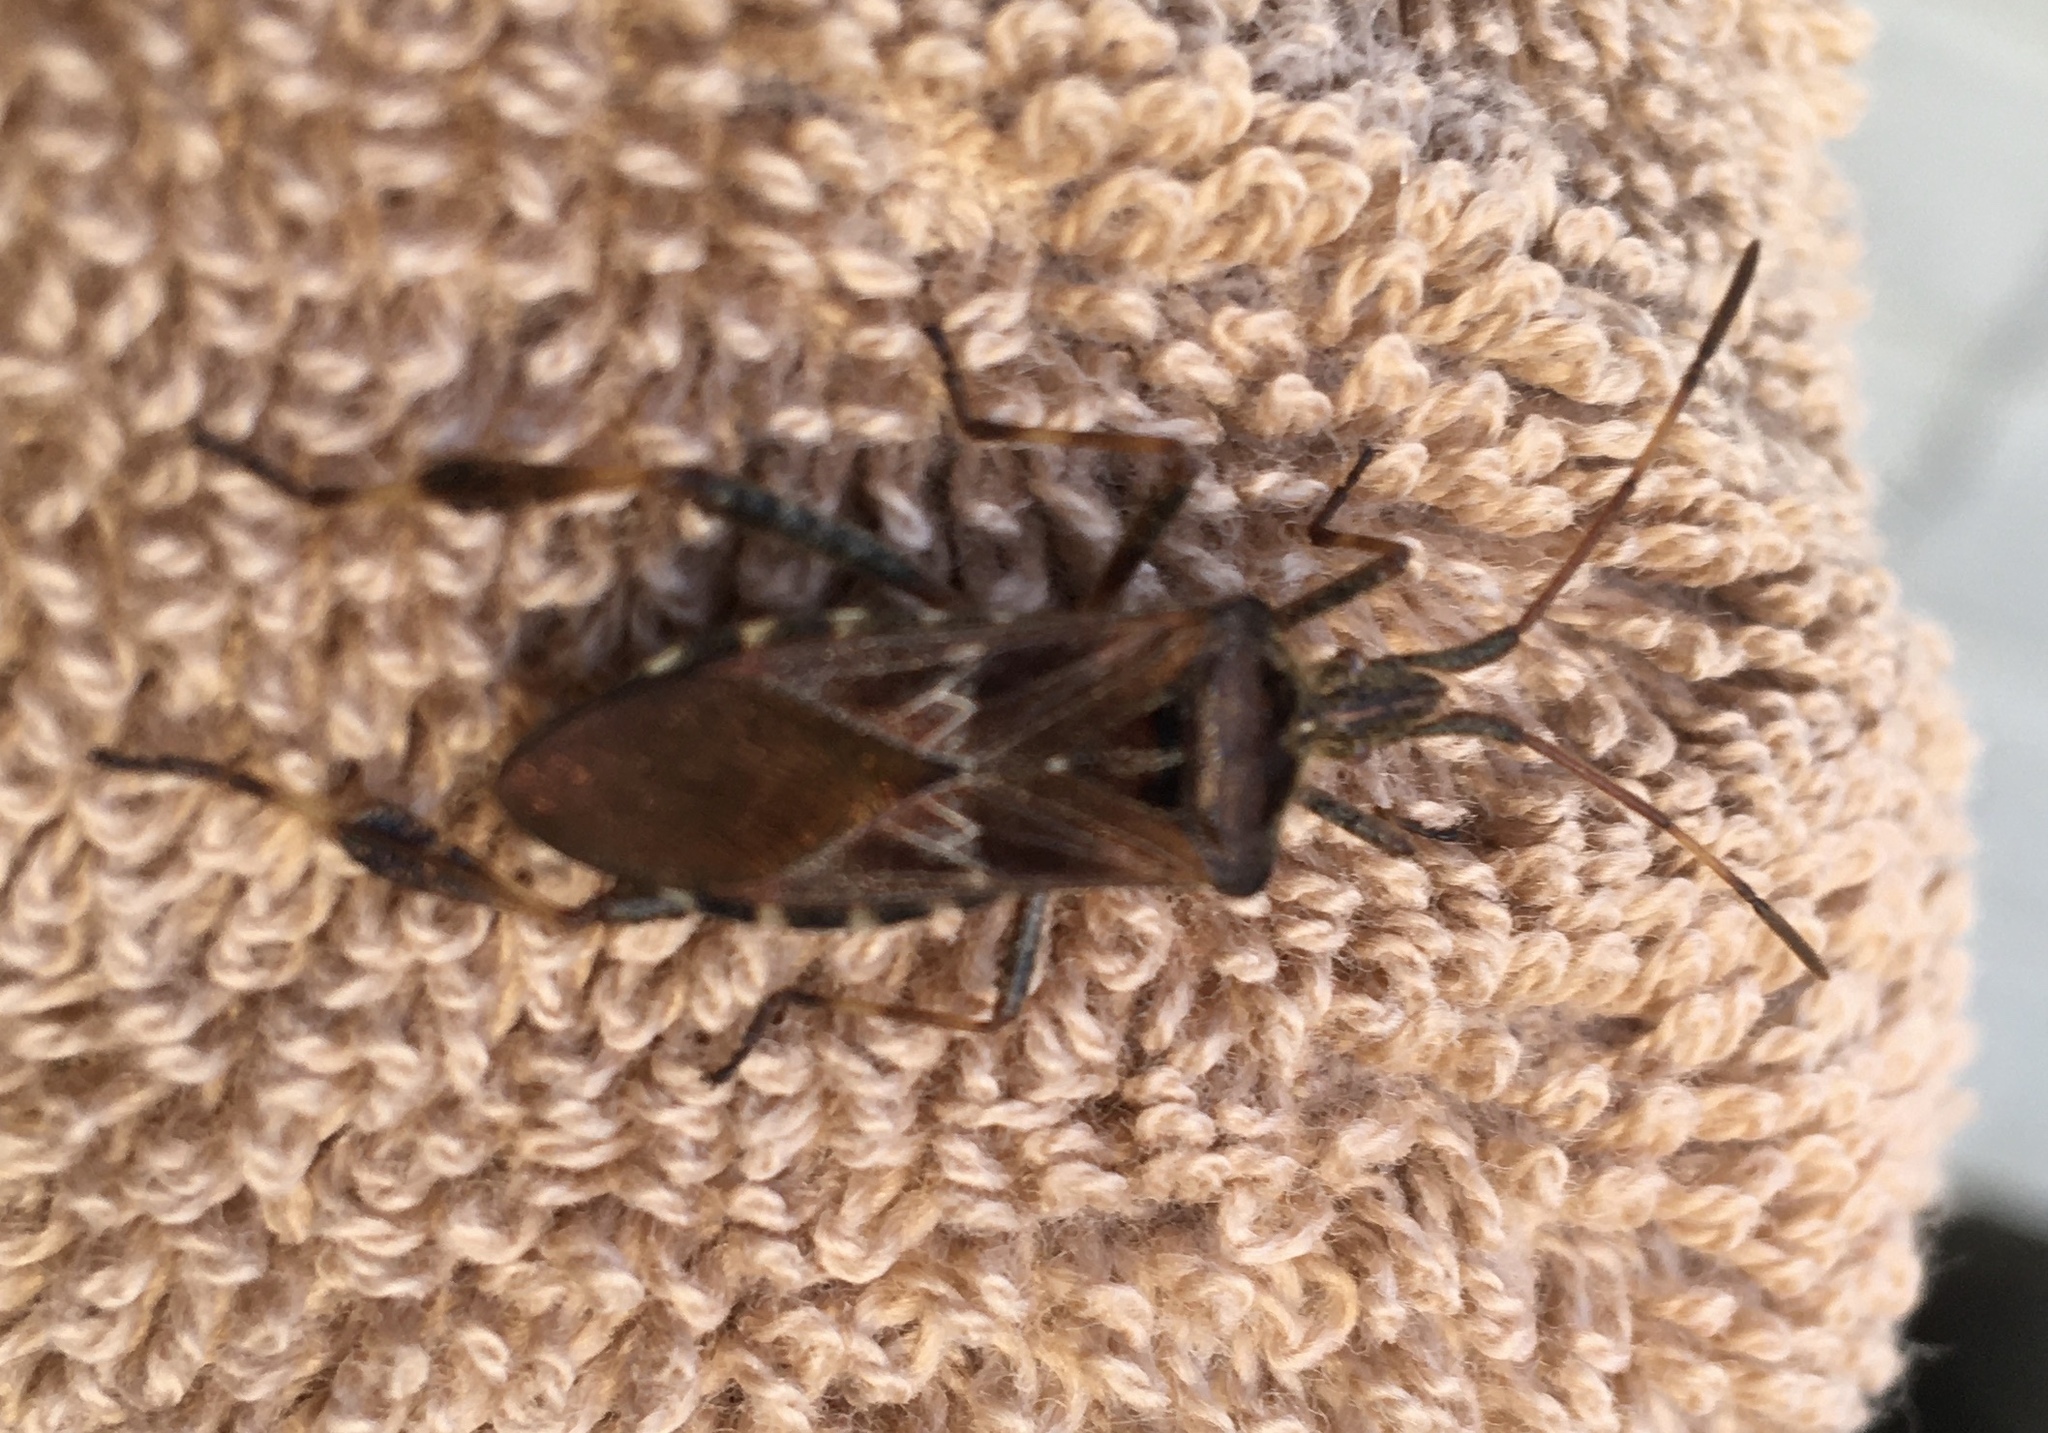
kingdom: Animalia
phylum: Arthropoda
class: Insecta
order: Hemiptera
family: Coreidae
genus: Leptoglossus
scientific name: Leptoglossus occidentalis
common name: Western conifer-seed bug
